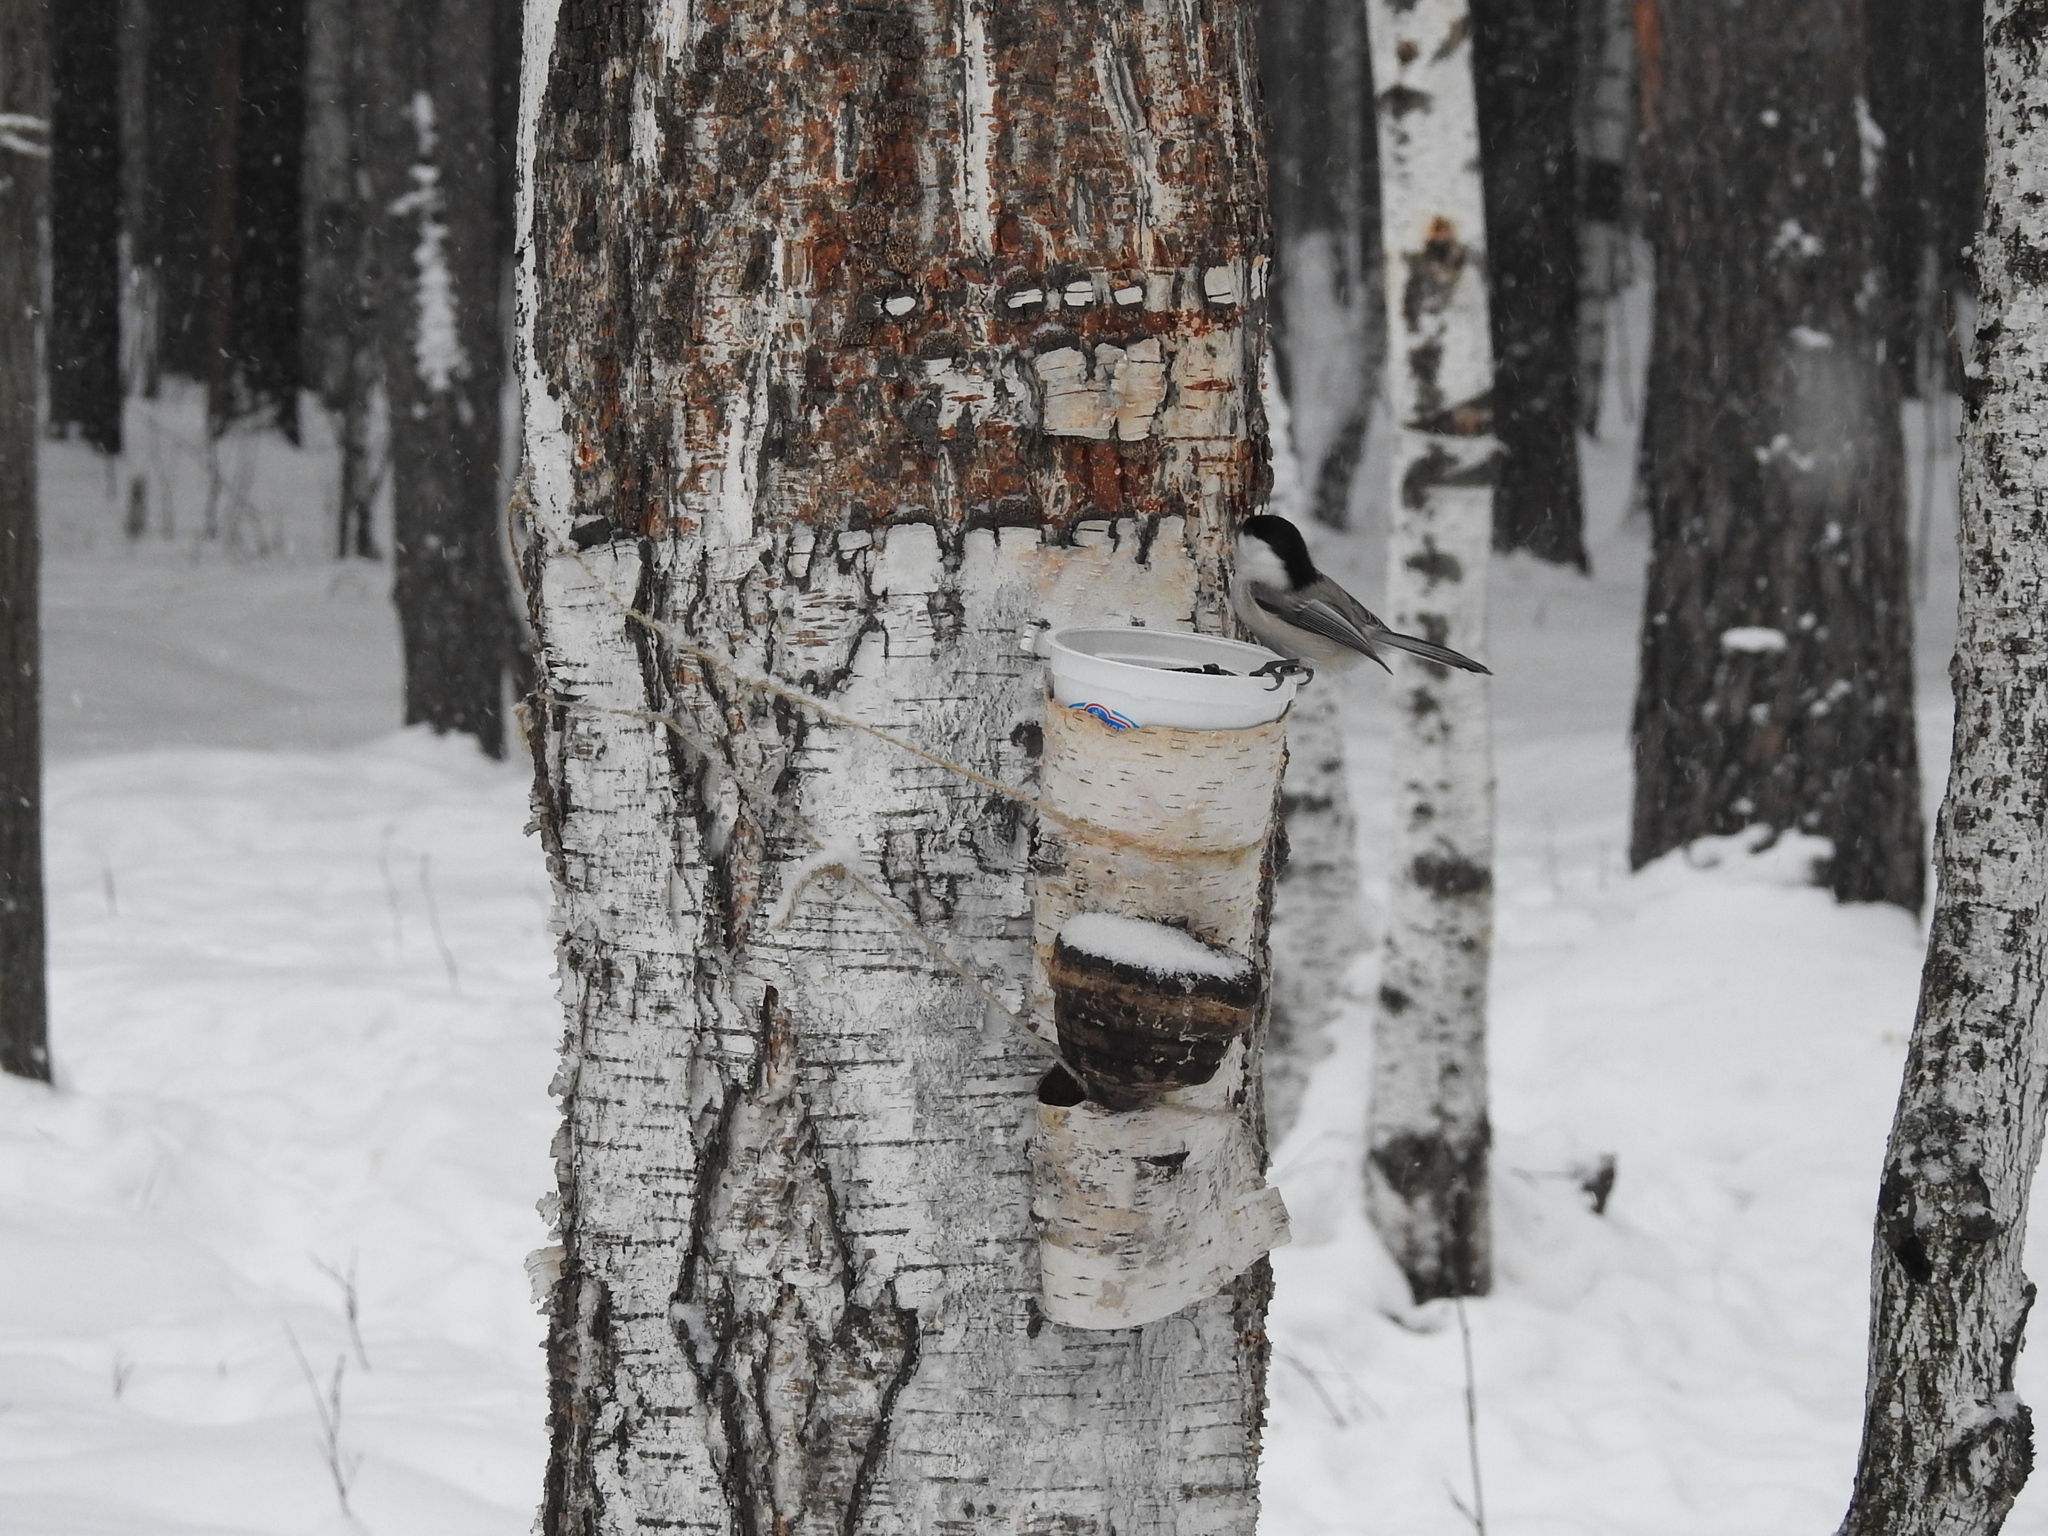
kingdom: Animalia
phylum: Chordata
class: Aves
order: Passeriformes
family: Paridae
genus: Poecile
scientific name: Poecile montanus
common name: Willow tit
